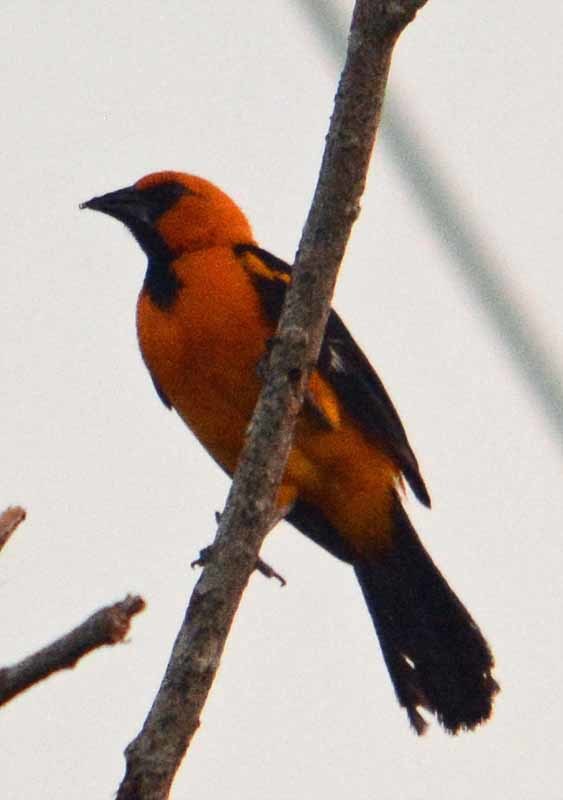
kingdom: Animalia
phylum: Chordata
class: Aves
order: Passeriformes
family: Icteridae
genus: Icterus
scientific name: Icterus gularis
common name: Altamira oriole
